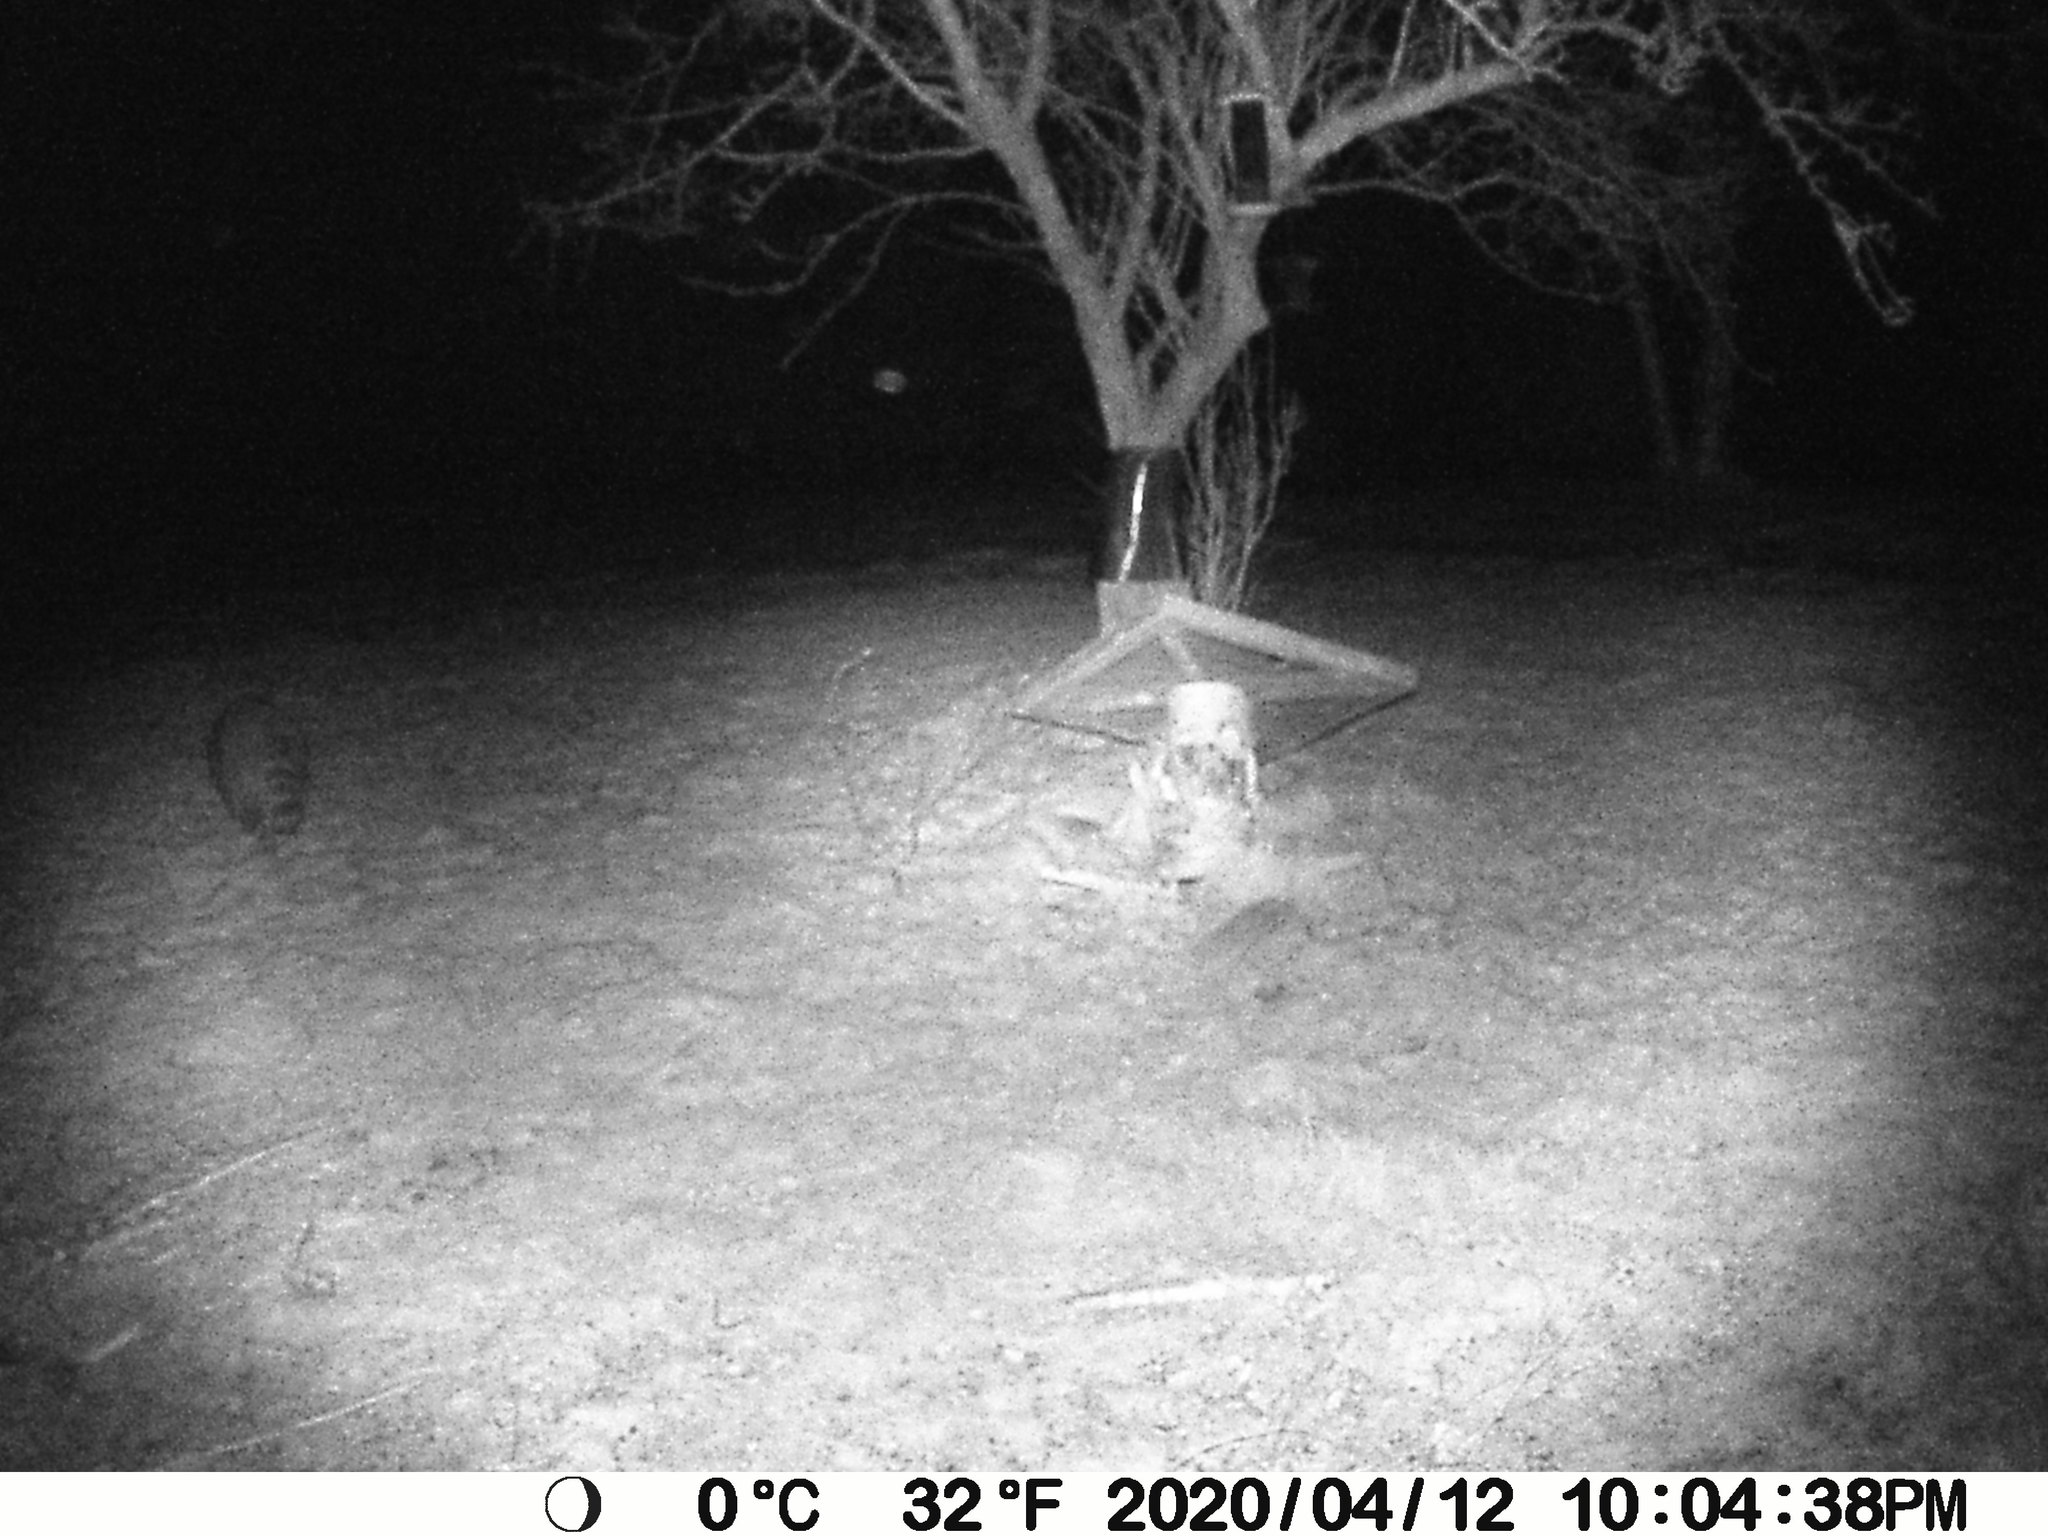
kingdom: Animalia
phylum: Chordata
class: Mammalia
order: Carnivora
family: Procyonidae
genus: Procyon
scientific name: Procyon lotor
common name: Raccoon
